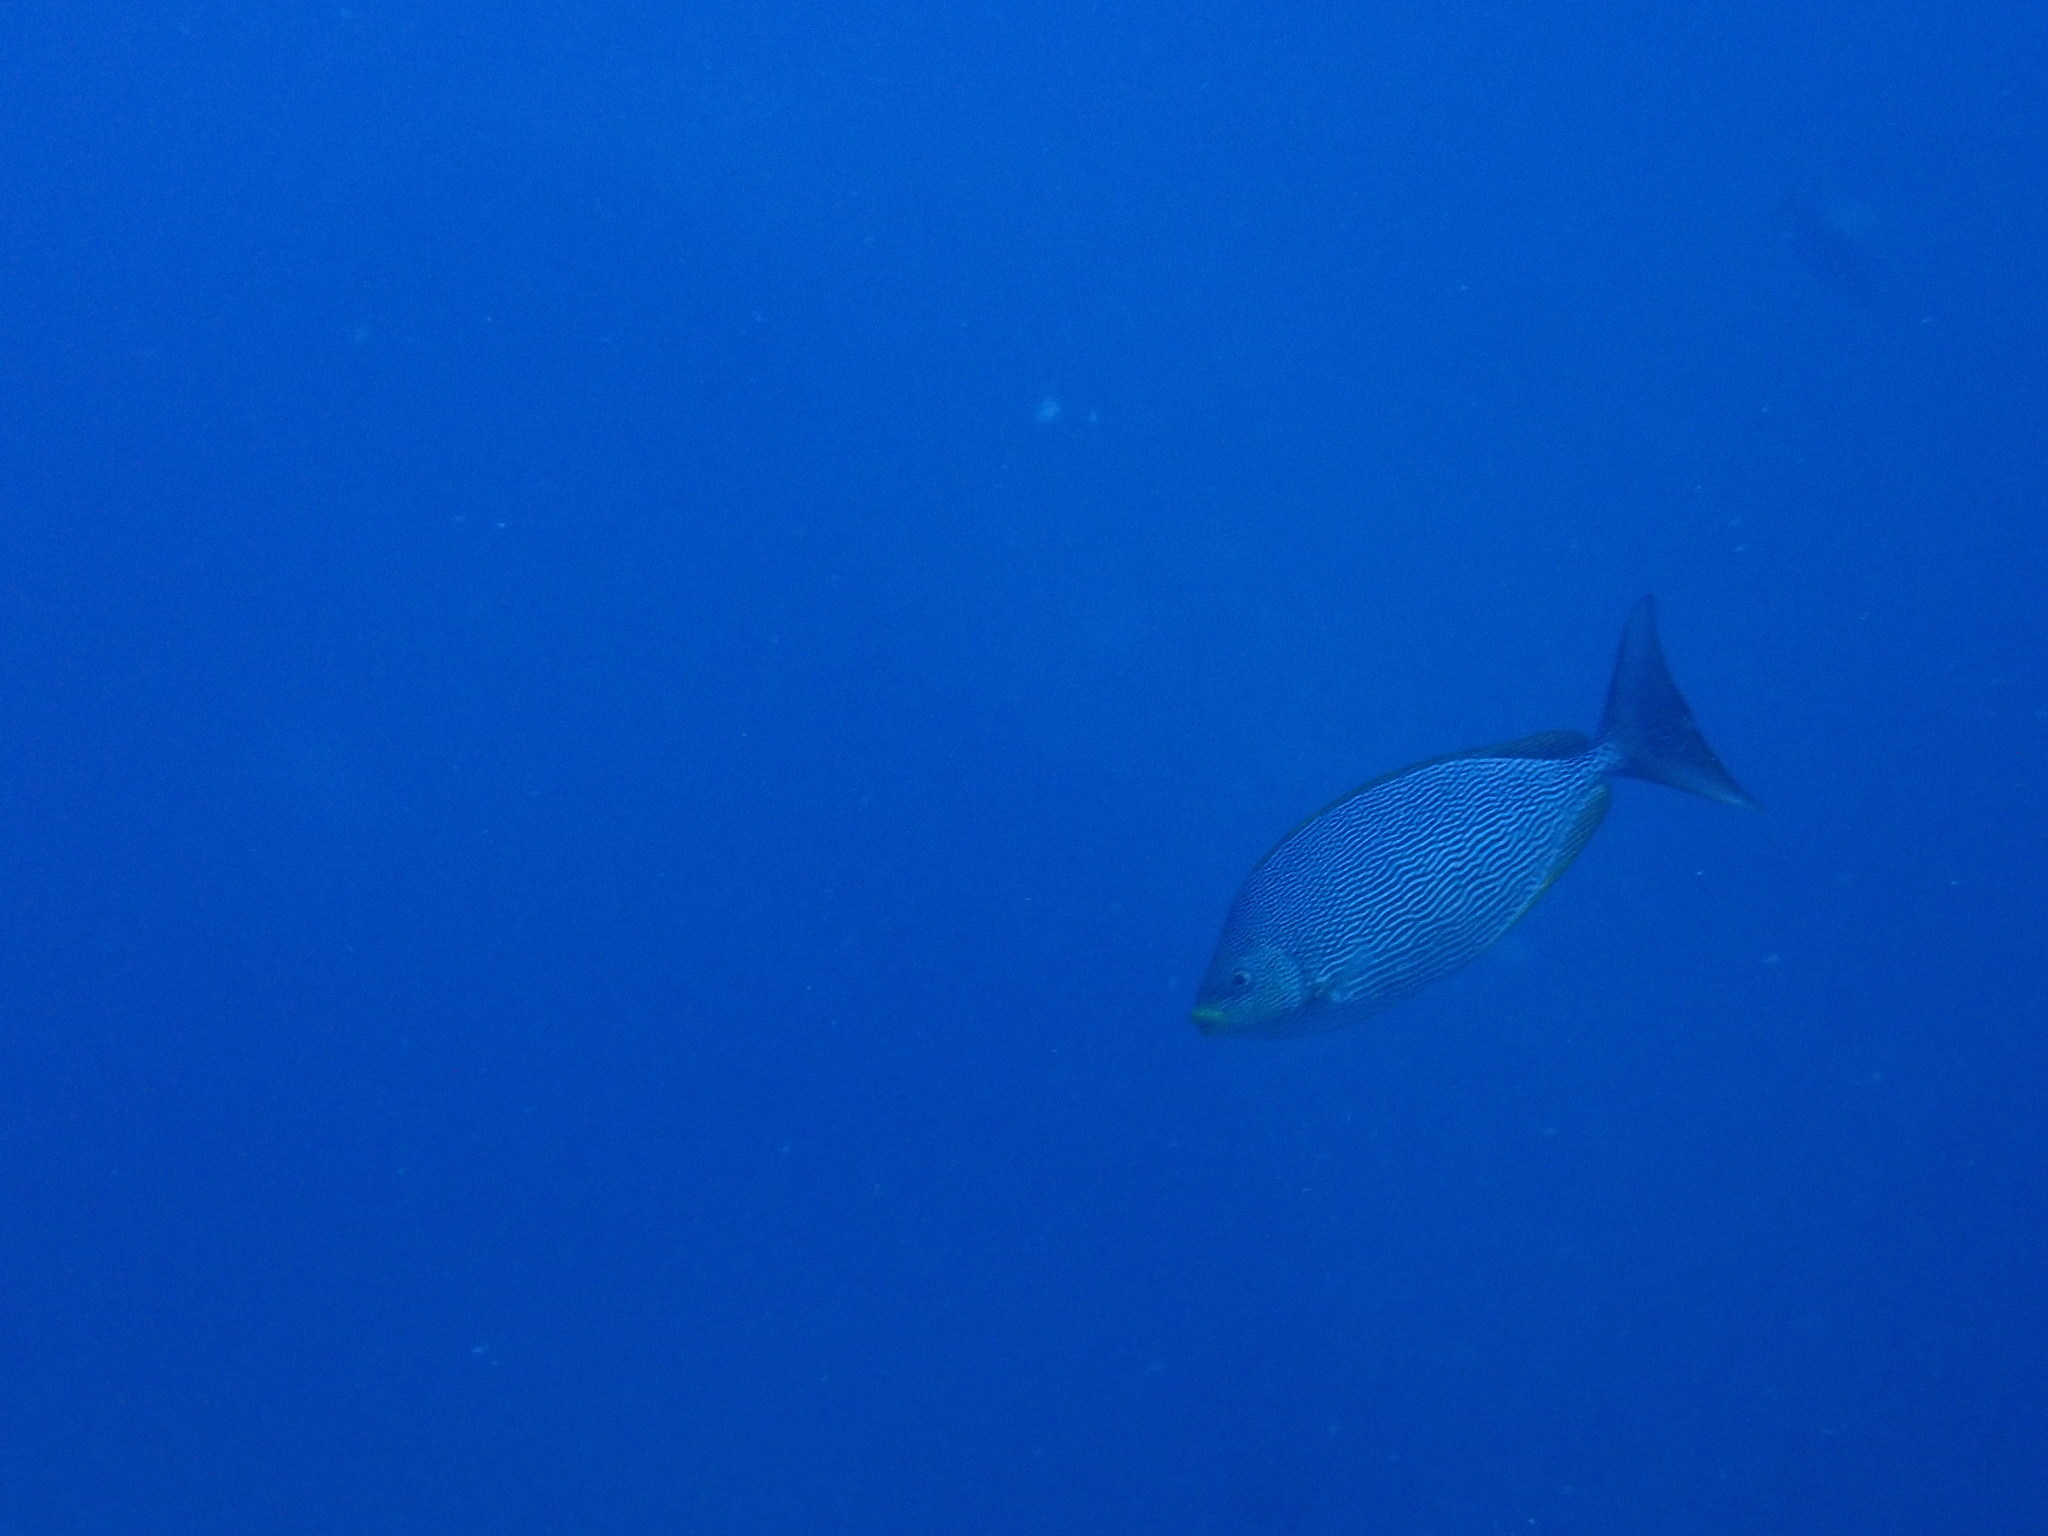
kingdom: Animalia
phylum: Chordata
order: Perciformes
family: Siganidae
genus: Siganus
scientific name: Siganus javus
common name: Java rabbitfish
